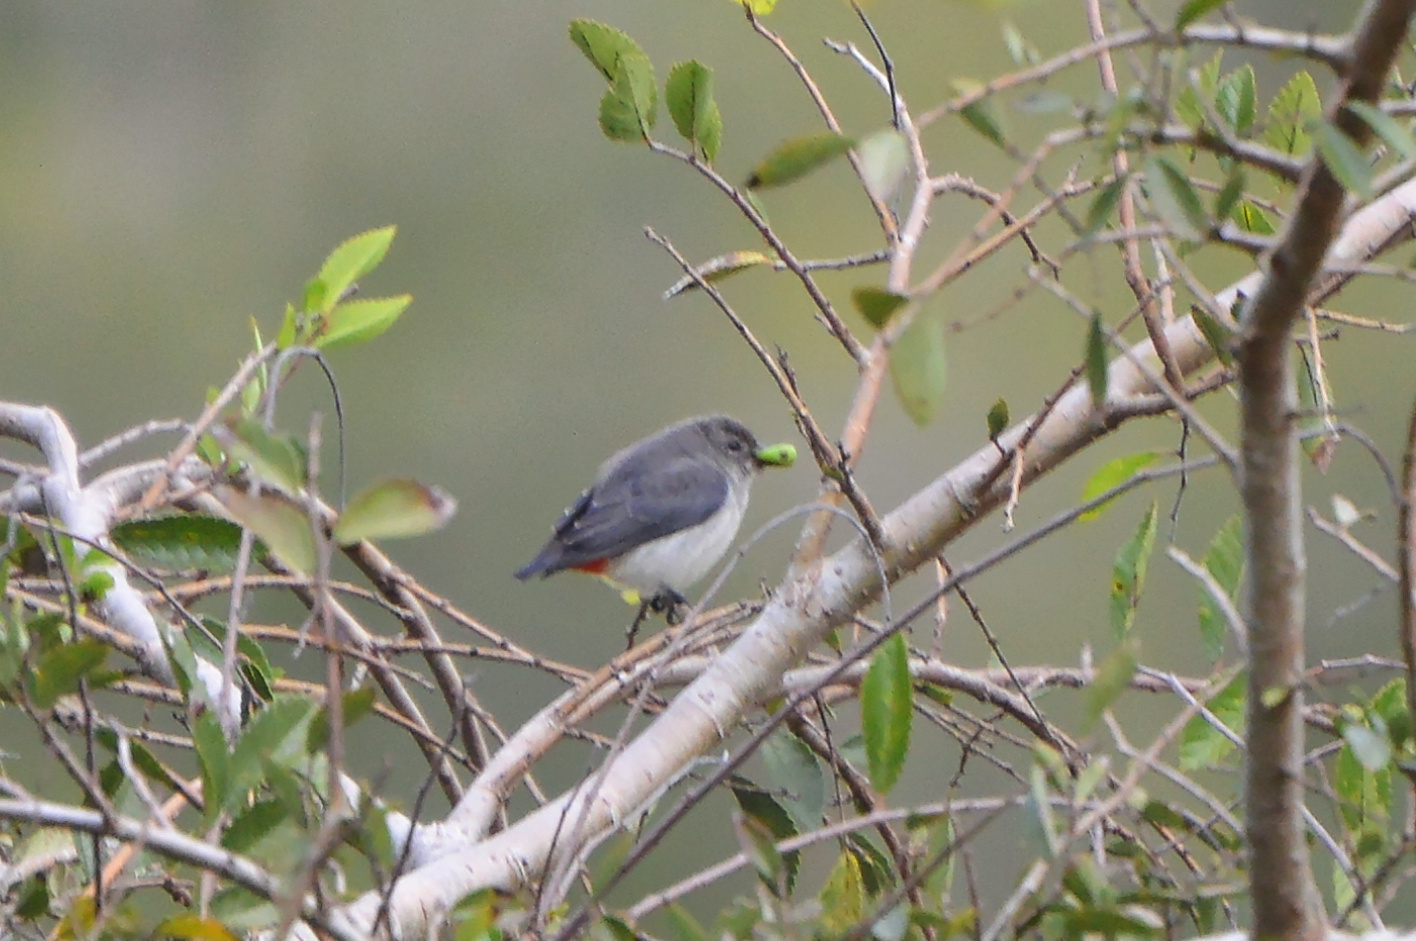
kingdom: Animalia
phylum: Chordata
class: Aves
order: Passeriformes
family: Dicaeidae
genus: Dicaeum
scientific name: Dicaeum hirundinaceum
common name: Mistletoebird
